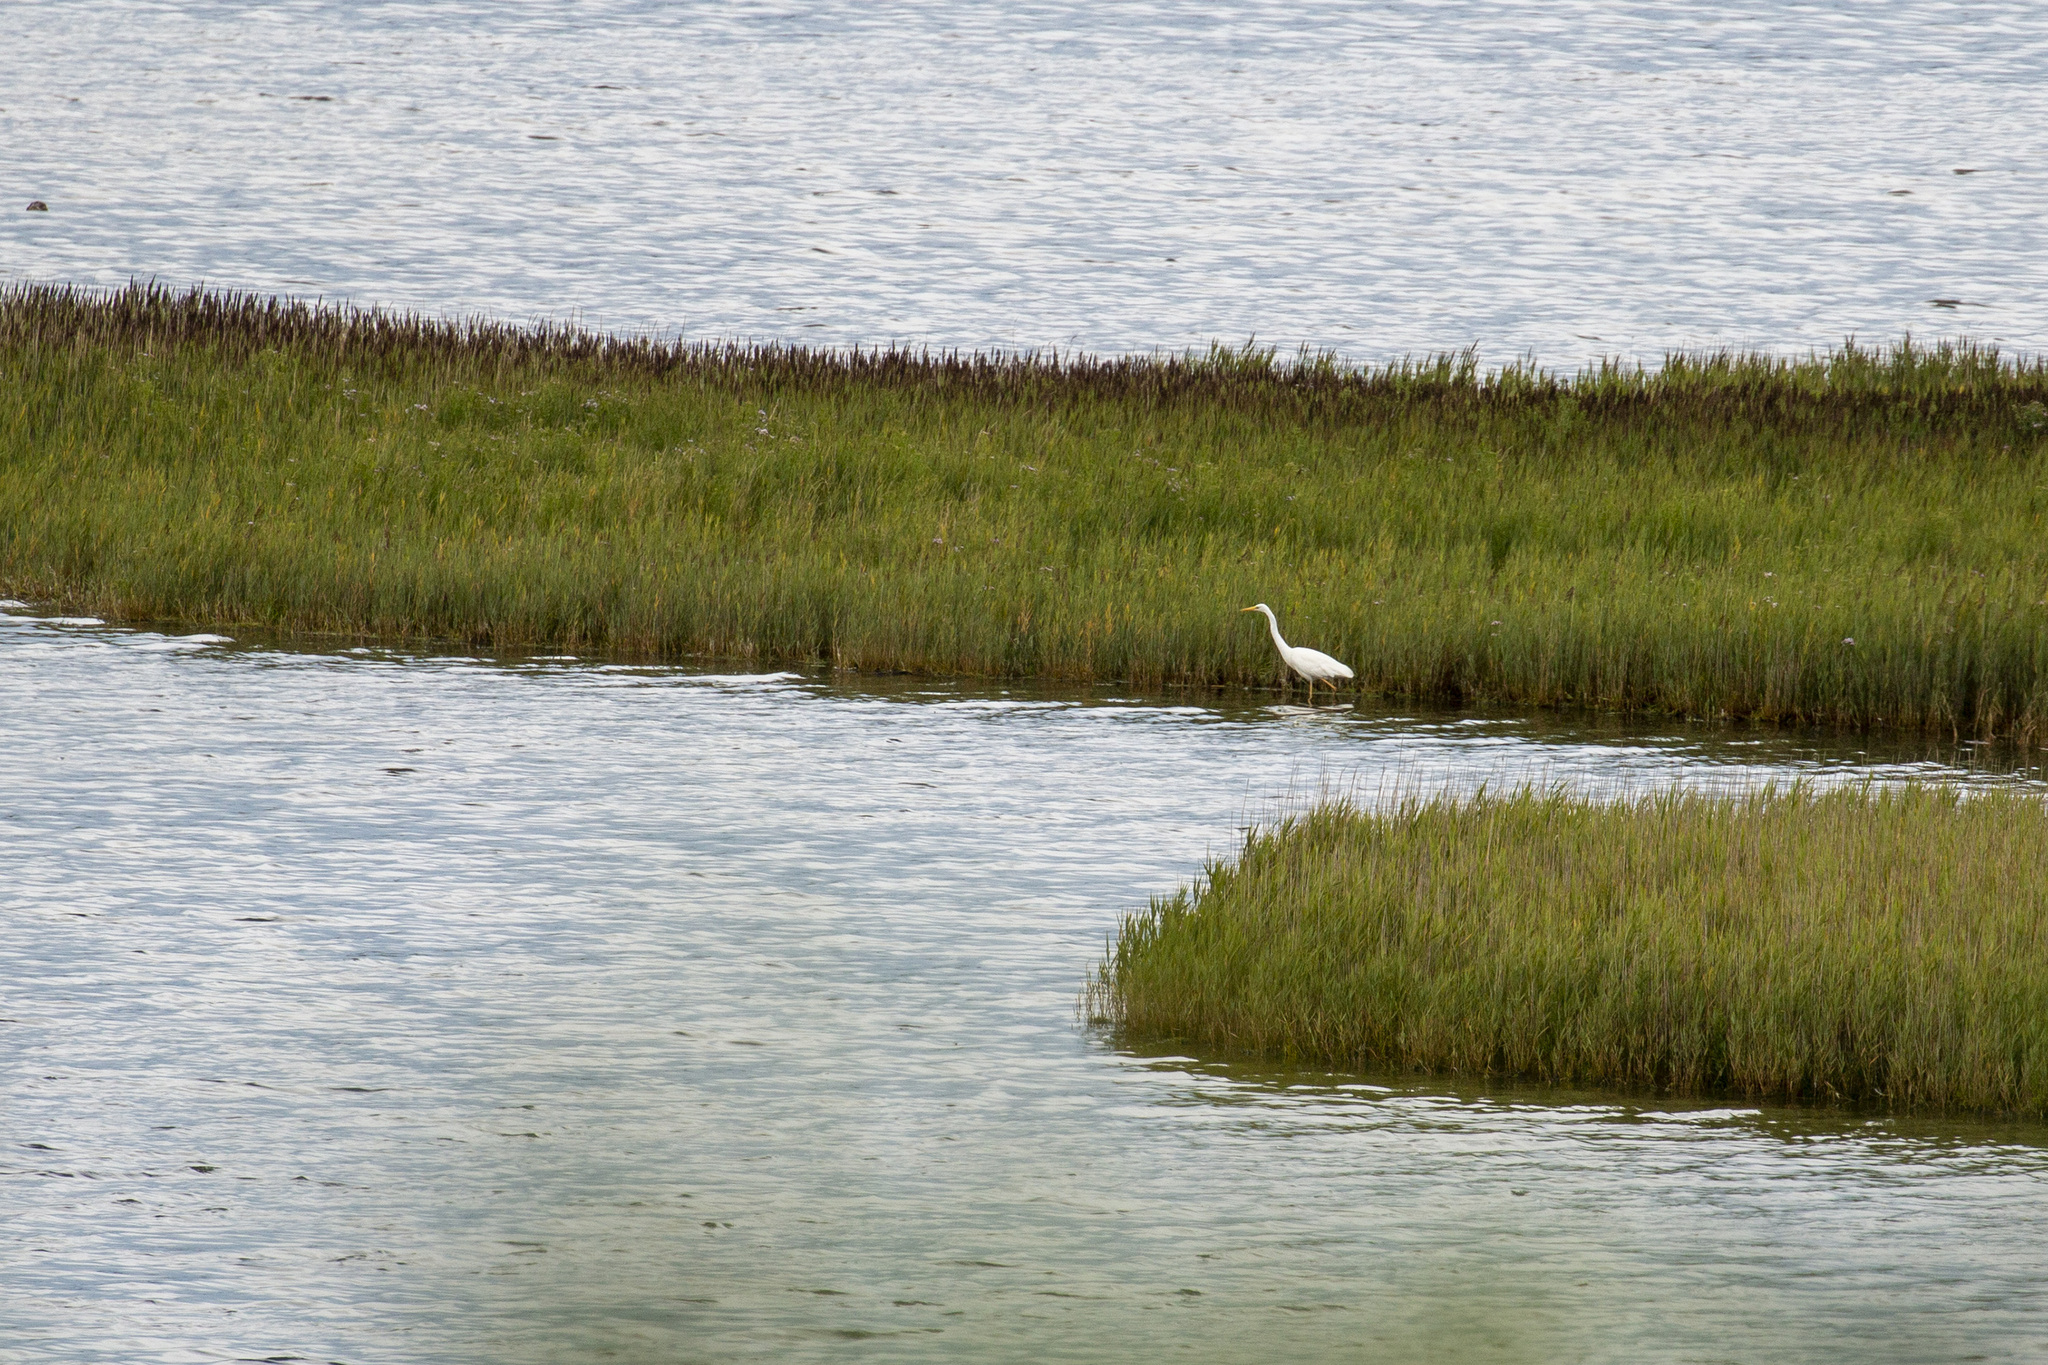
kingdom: Animalia
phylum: Chordata
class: Aves
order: Pelecaniformes
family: Ardeidae
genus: Ardea
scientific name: Ardea alba
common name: Great egret
